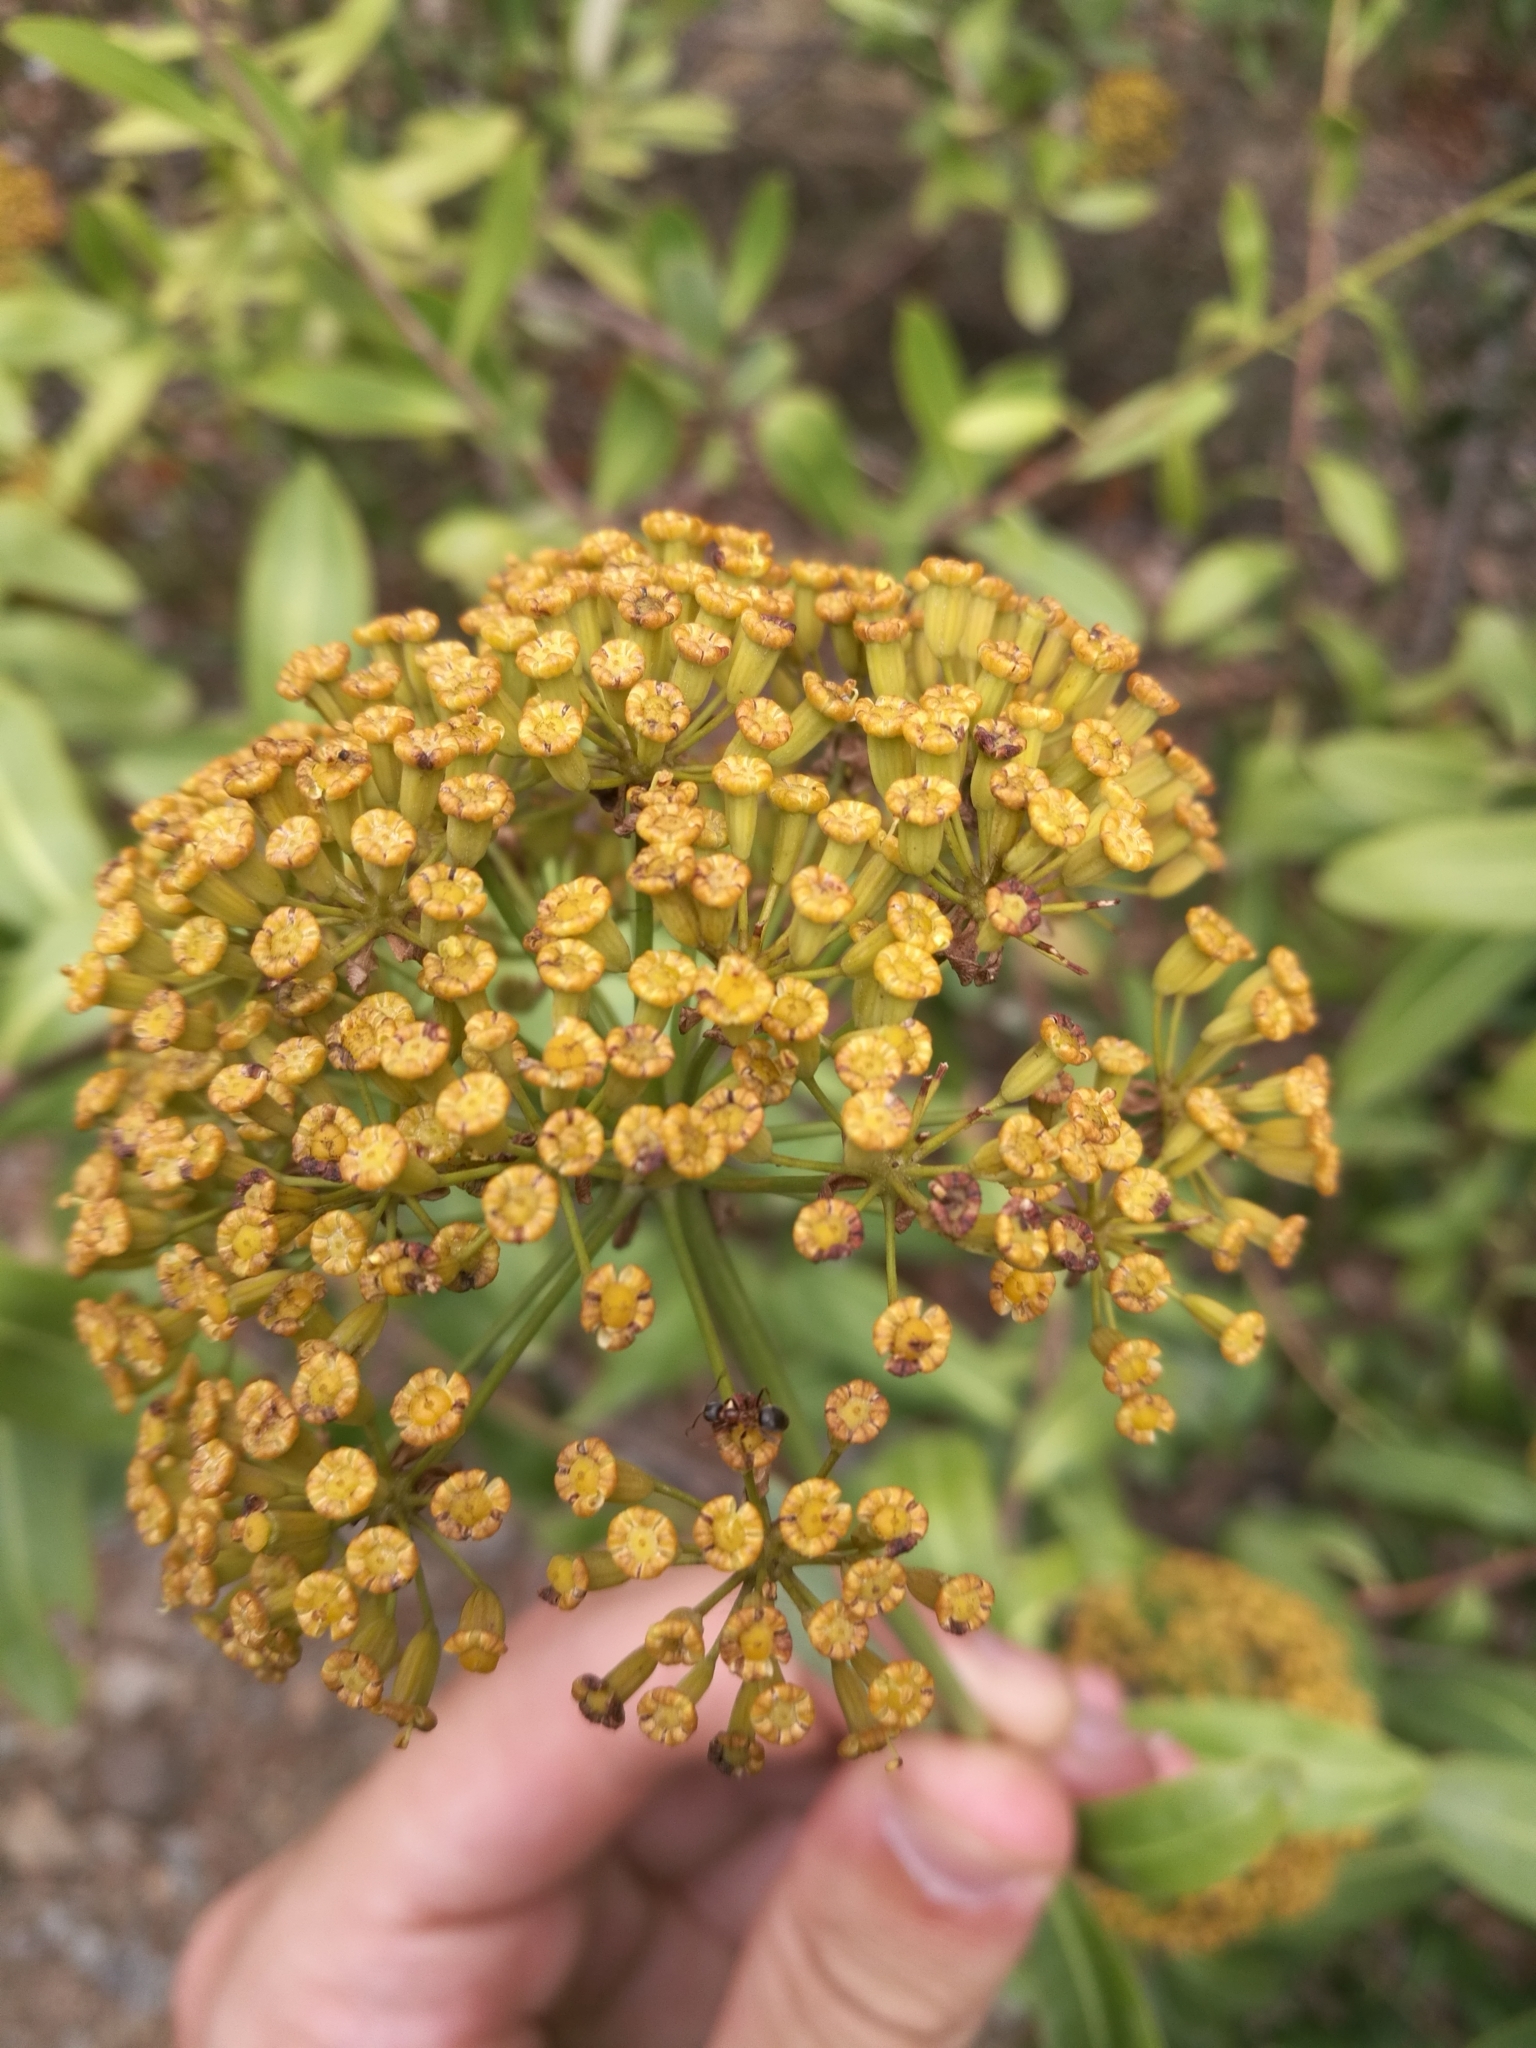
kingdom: Animalia
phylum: Arthropoda
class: Insecta
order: Hymenoptera
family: Formicidae
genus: Lasius
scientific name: Lasius emarginatus
